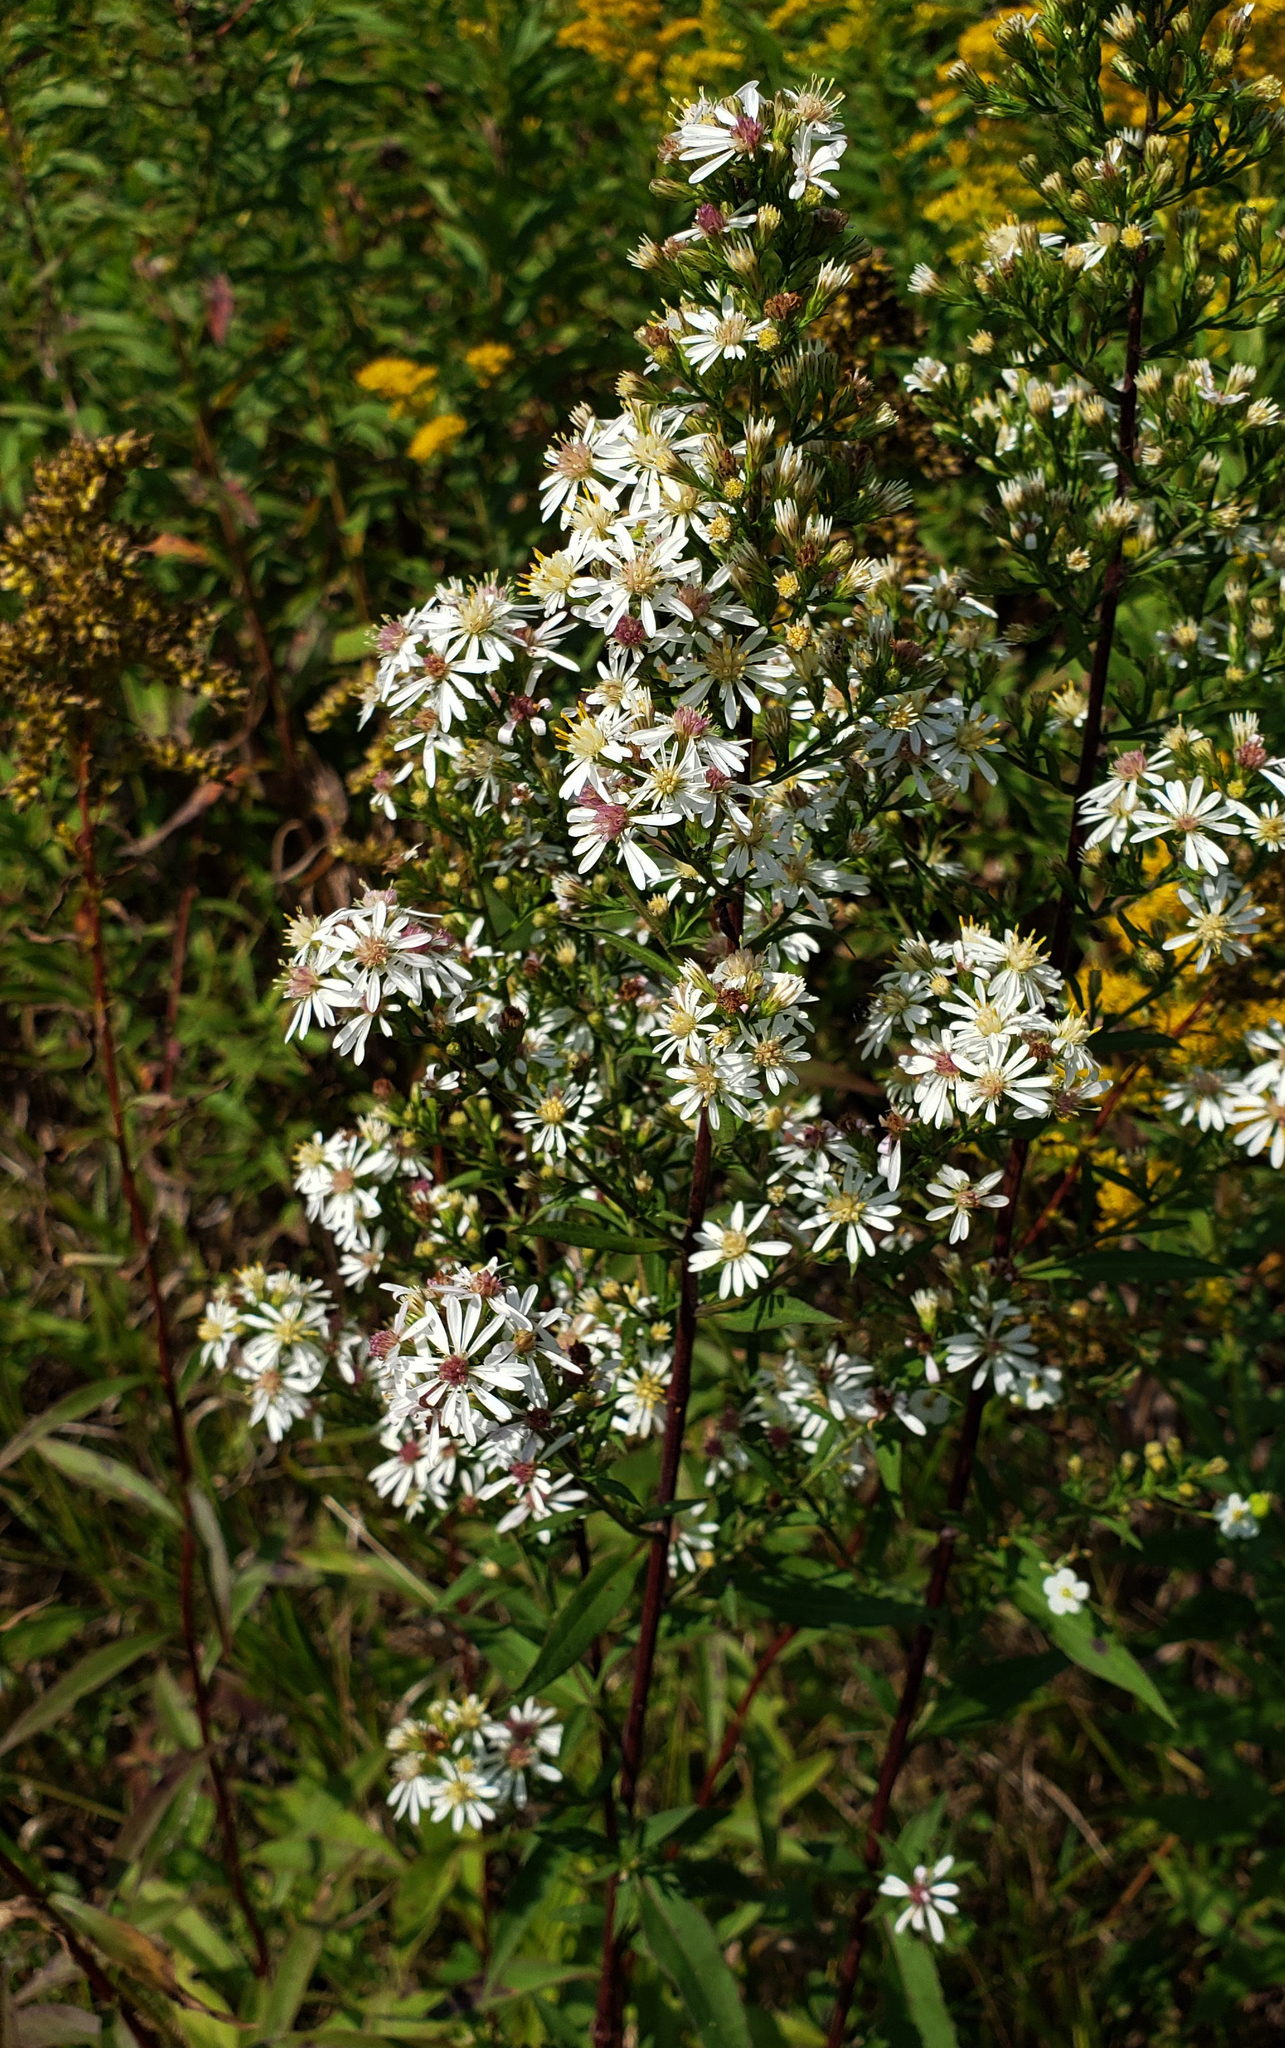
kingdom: Plantae
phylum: Tracheophyta
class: Magnoliopsida
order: Asterales
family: Asteraceae
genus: Symphyotrichum
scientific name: Symphyotrichum urophyllum
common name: Arrow-leaved aster
